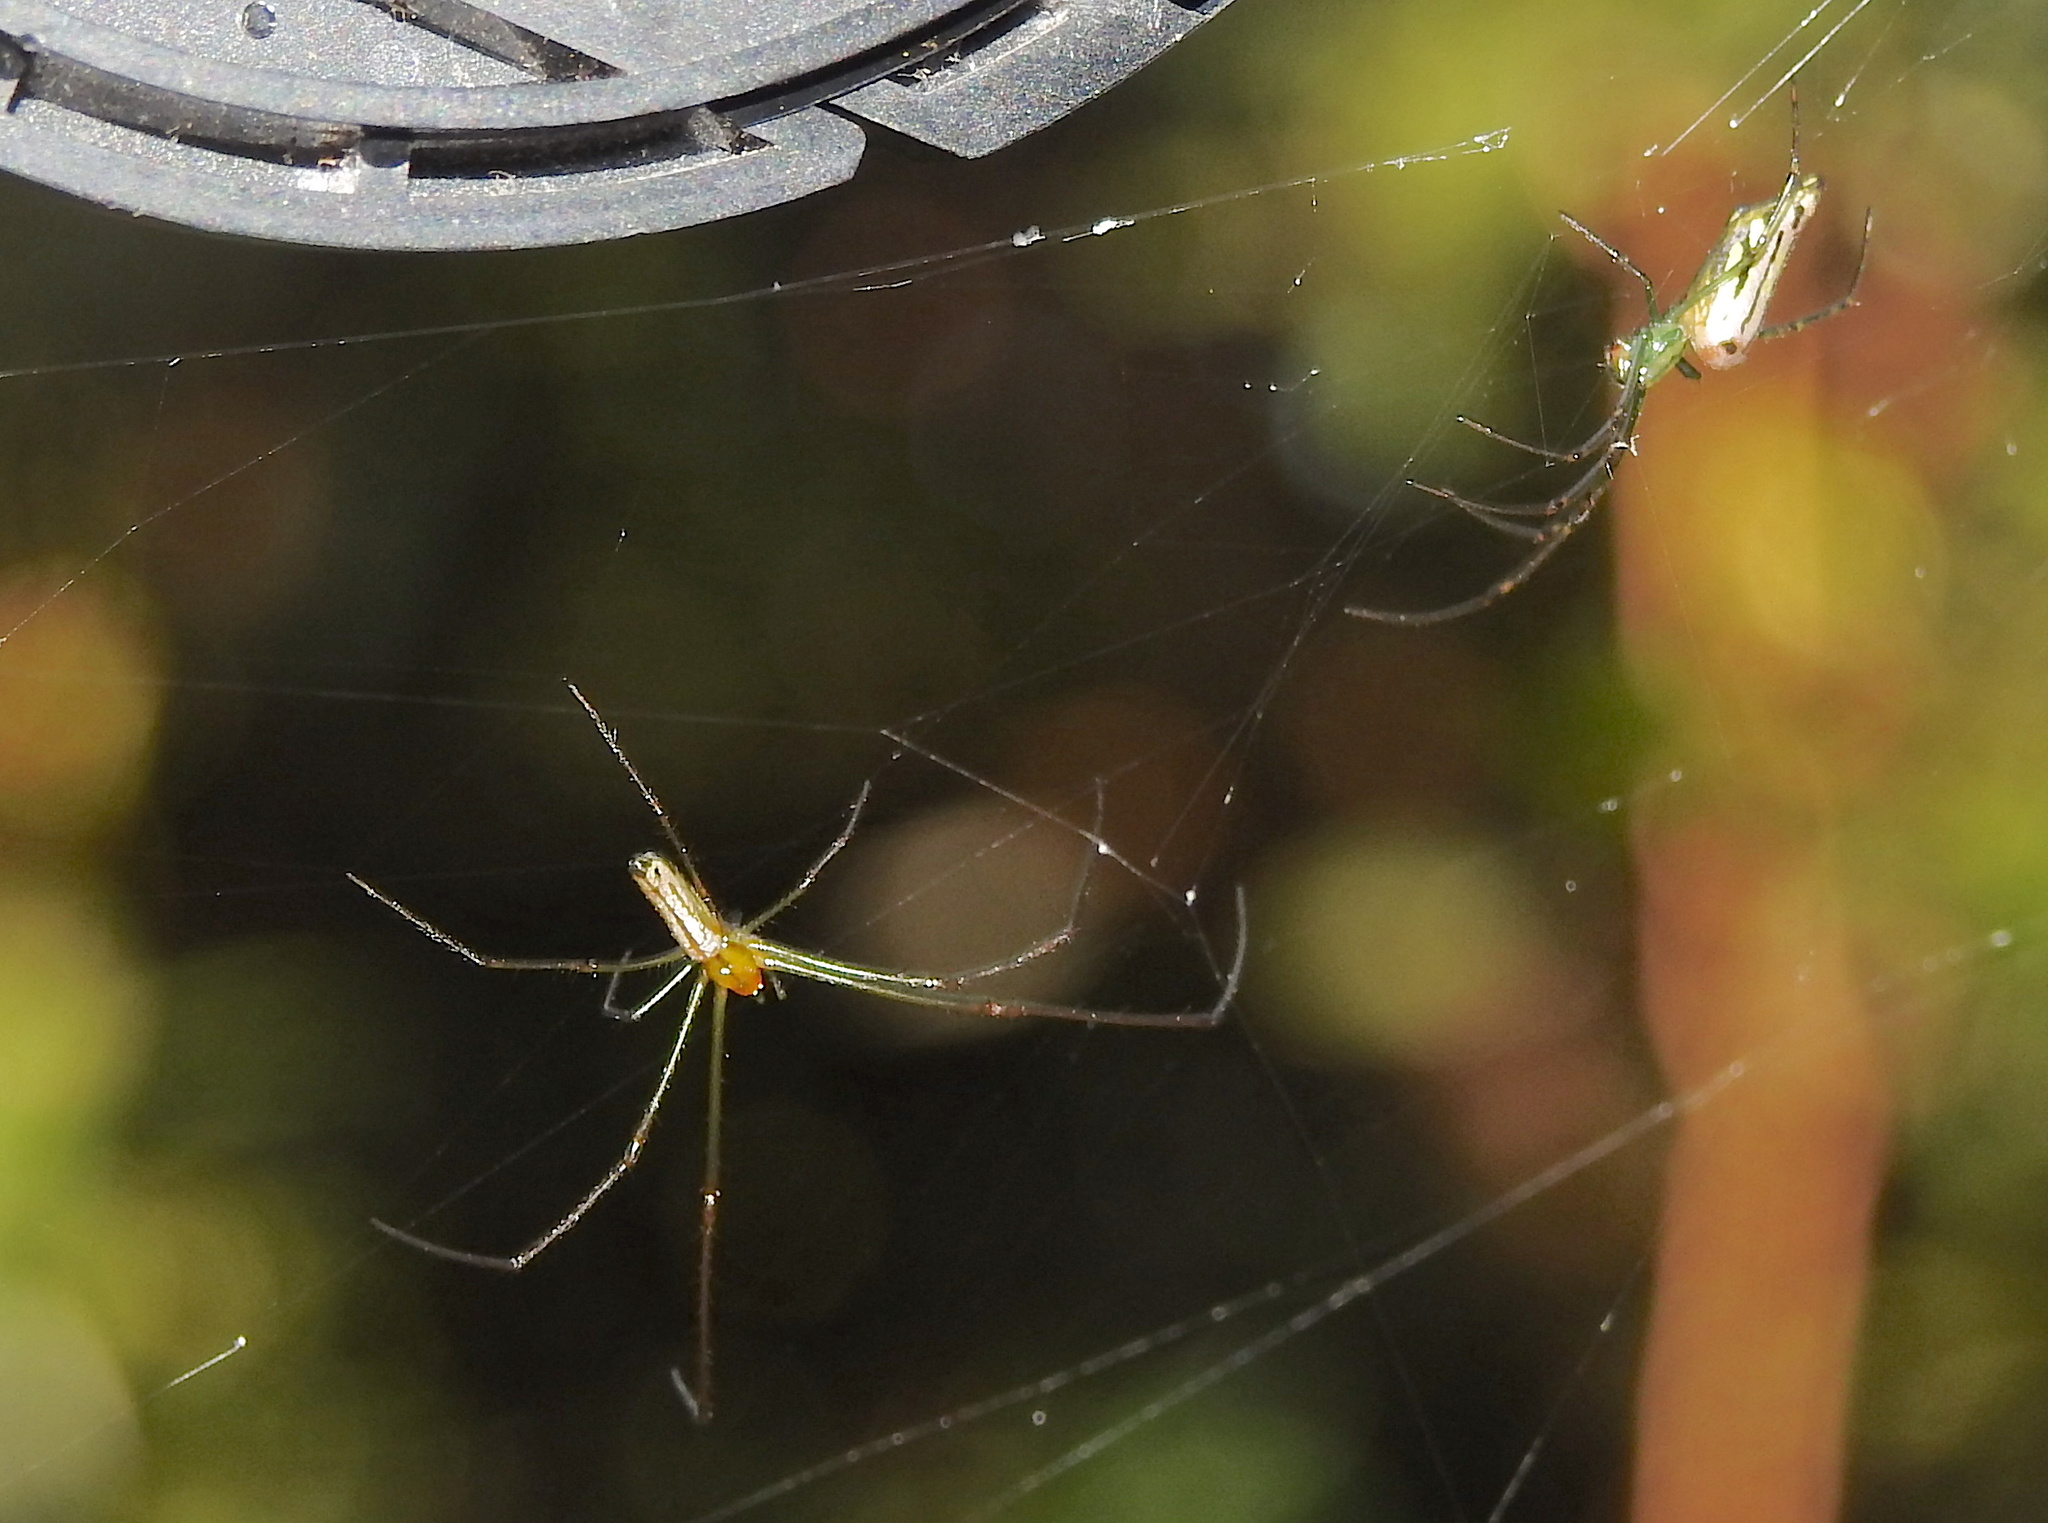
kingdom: Animalia
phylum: Arthropoda
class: Arachnida
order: Araneae
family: Tetragnathidae
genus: Leucauge
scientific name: Leucauge decorata
